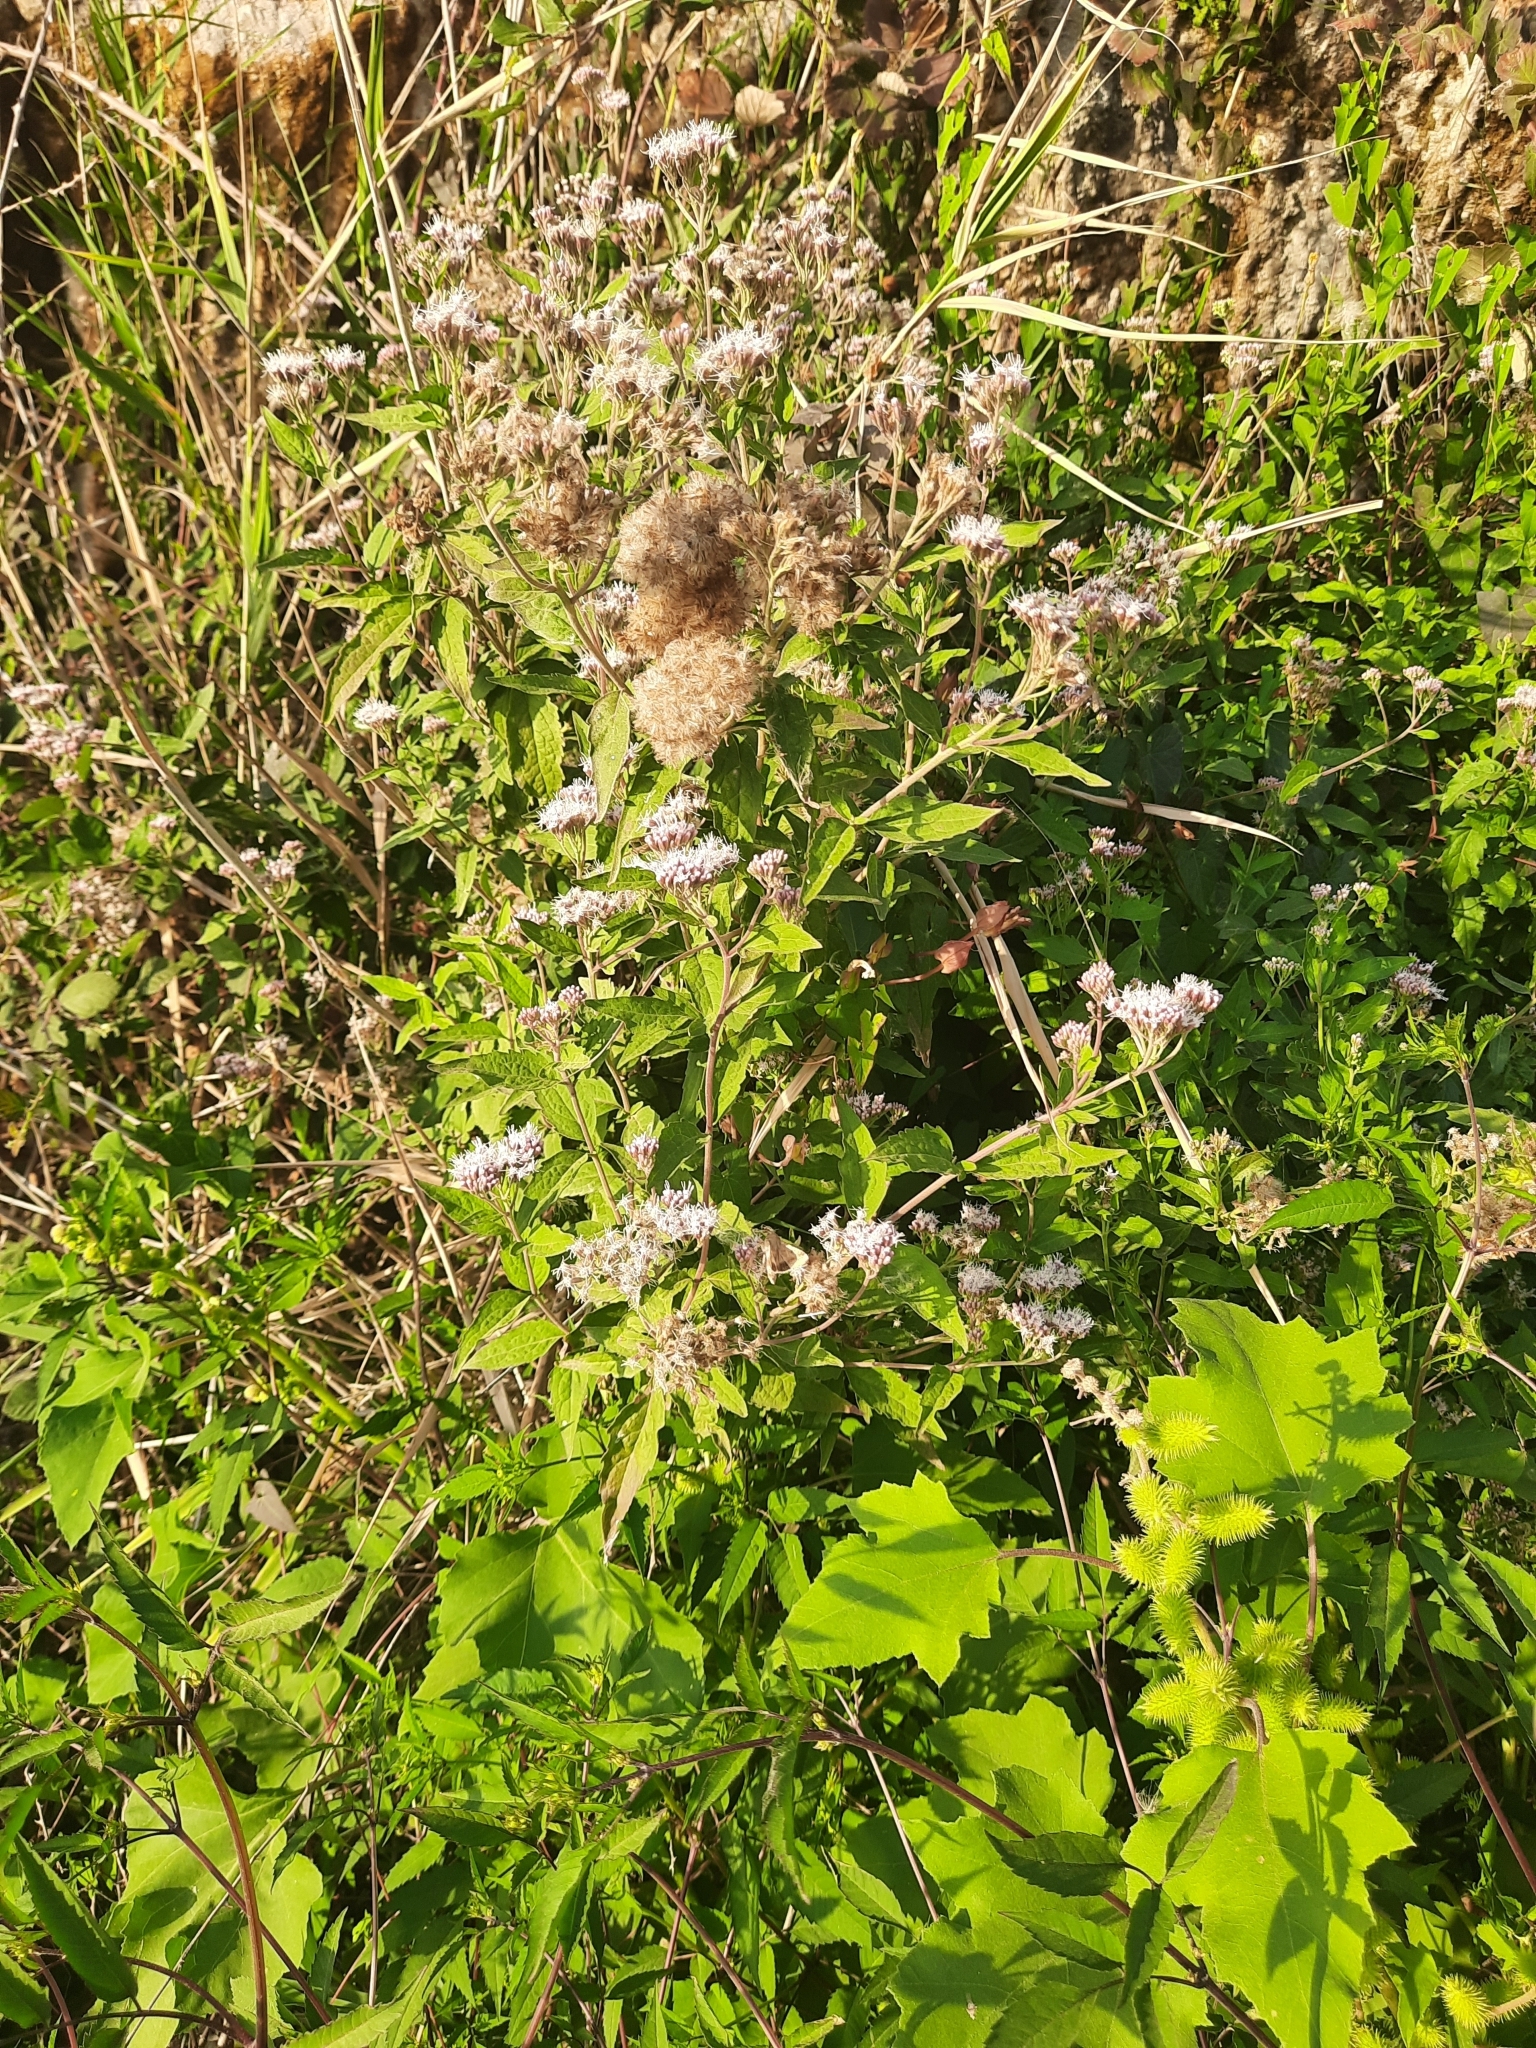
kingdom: Plantae
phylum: Tracheophyta
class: Magnoliopsida
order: Asterales
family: Asteraceae
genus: Eupatorium
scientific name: Eupatorium cannabinum
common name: Hemp-agrimony
